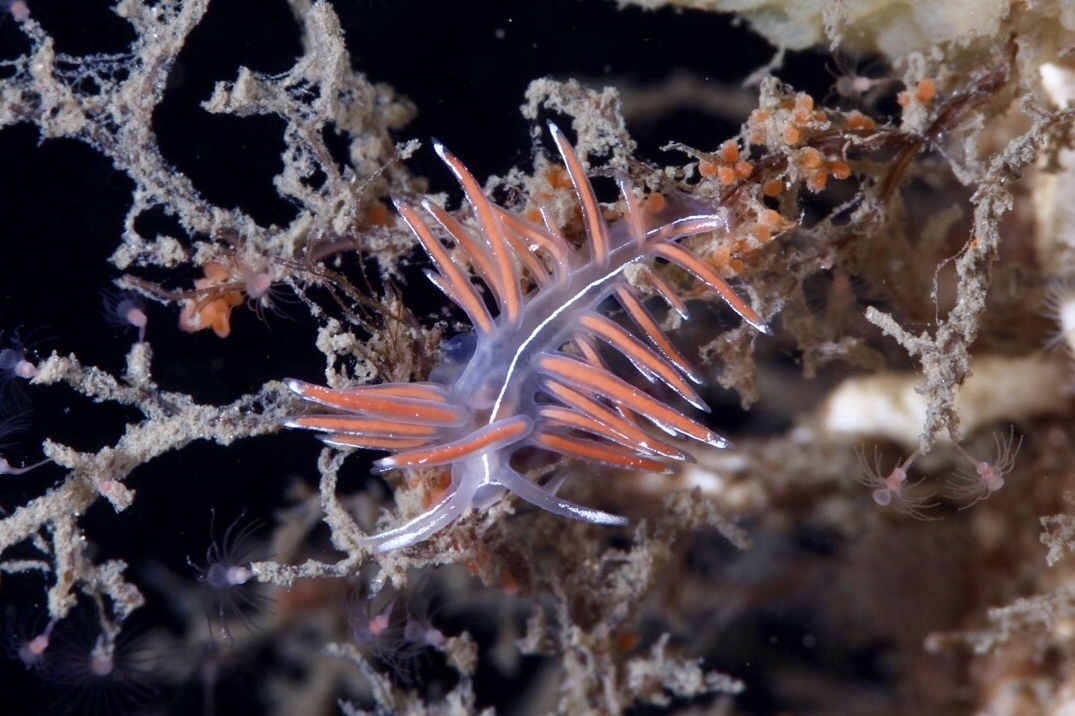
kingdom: Animalia
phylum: Mollusca
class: Gastropoda
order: Nudibranchia
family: Coryphellidae
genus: Coryphella
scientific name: Coryphella lineata
